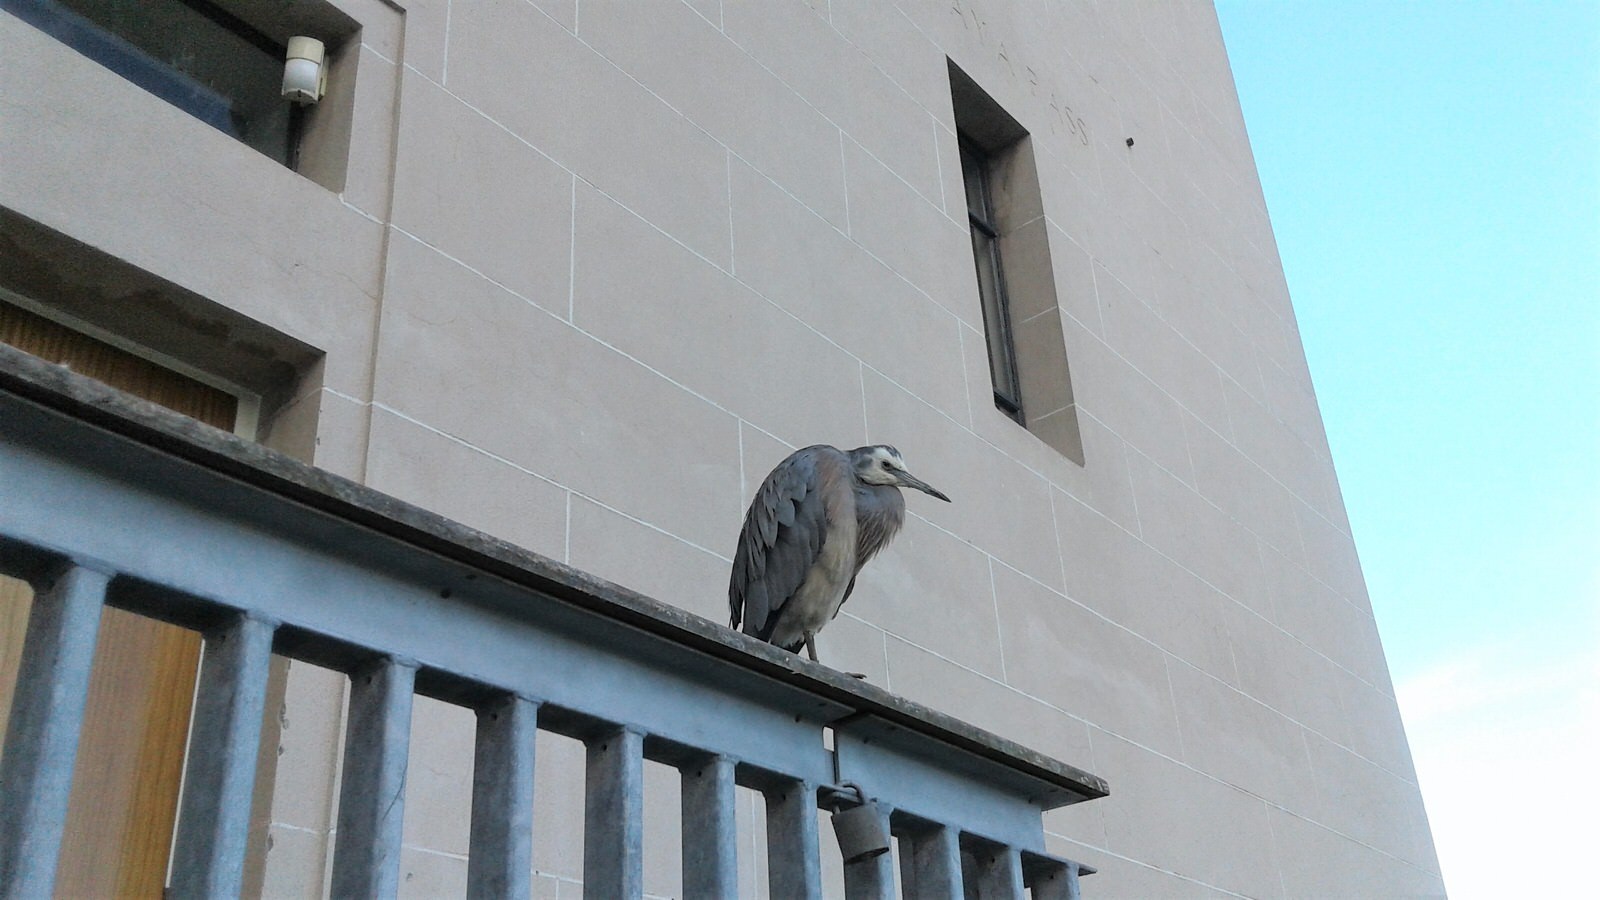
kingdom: Animalia
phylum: Chordata
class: Aves
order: Pelecaniformes
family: Ardeidae
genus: Egretta
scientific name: Egretta novaehollandiae
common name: White-faced heron
